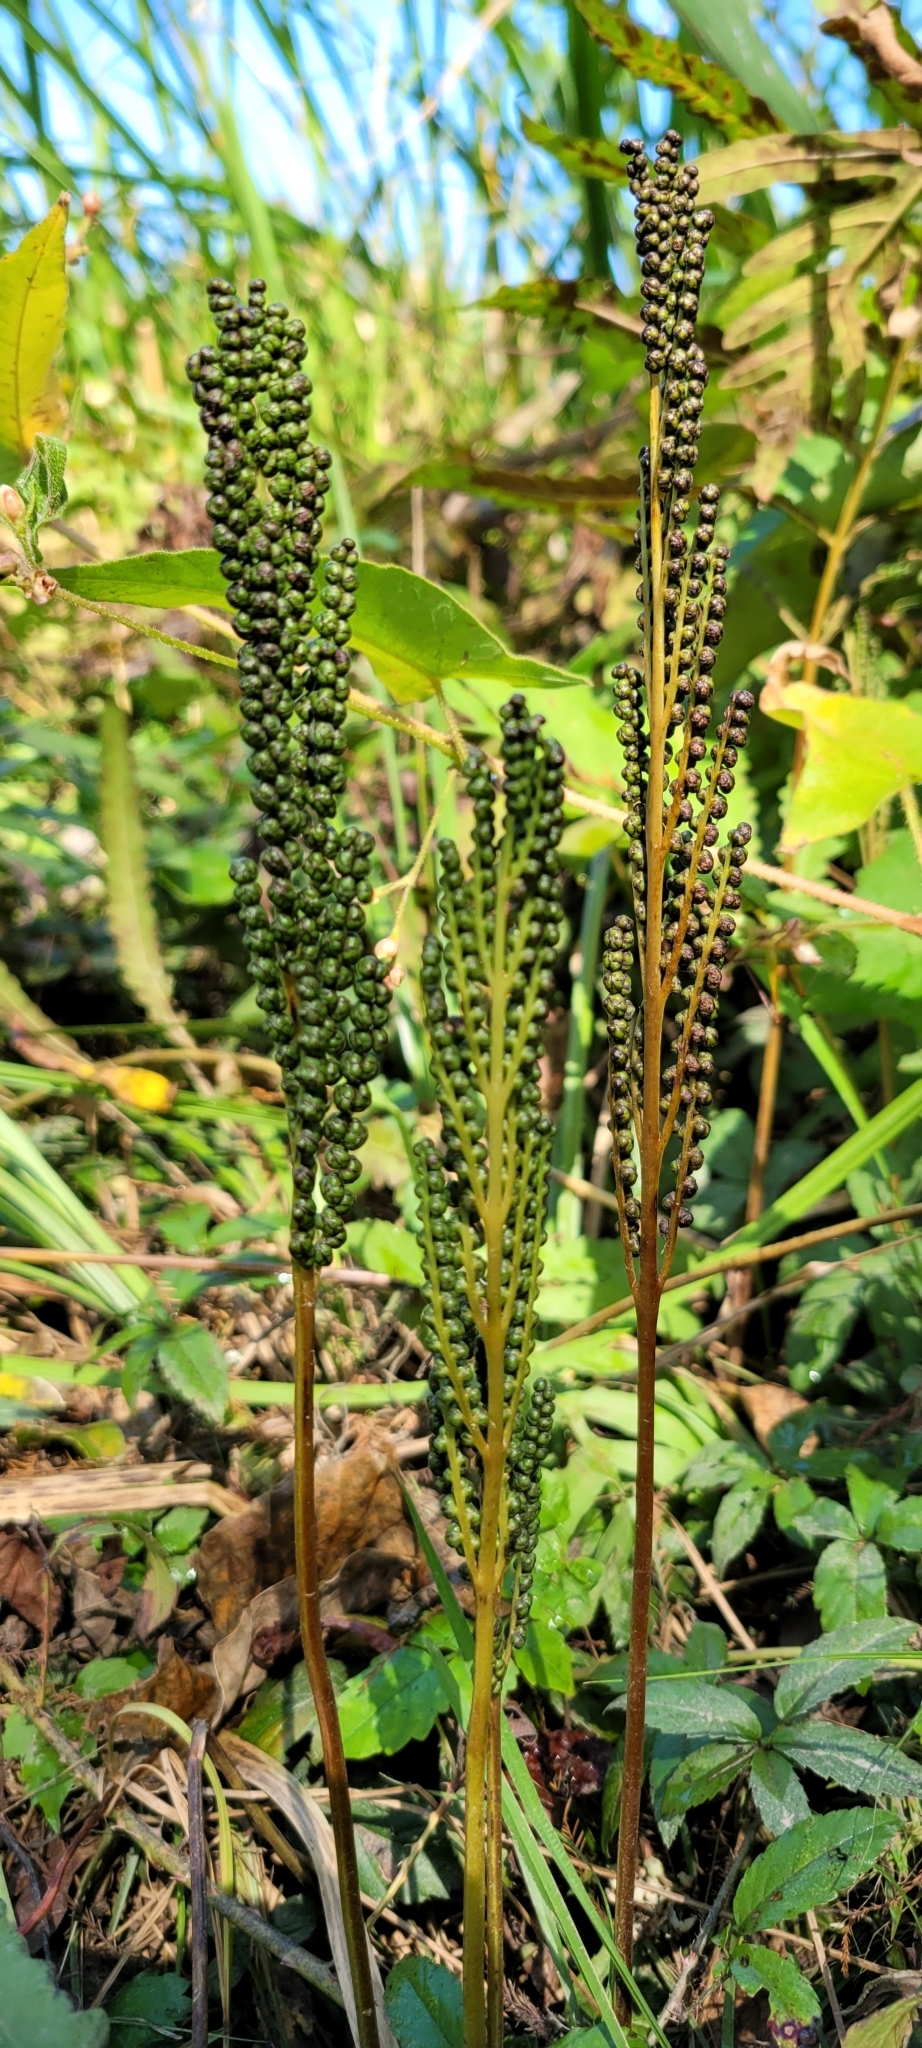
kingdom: Plantae
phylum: Tracheophyta
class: Polypodiopsida
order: Polypodiales
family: Onocleaceae
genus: Onoclea
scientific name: Onoclea sensibilis
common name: Sensitive fern
